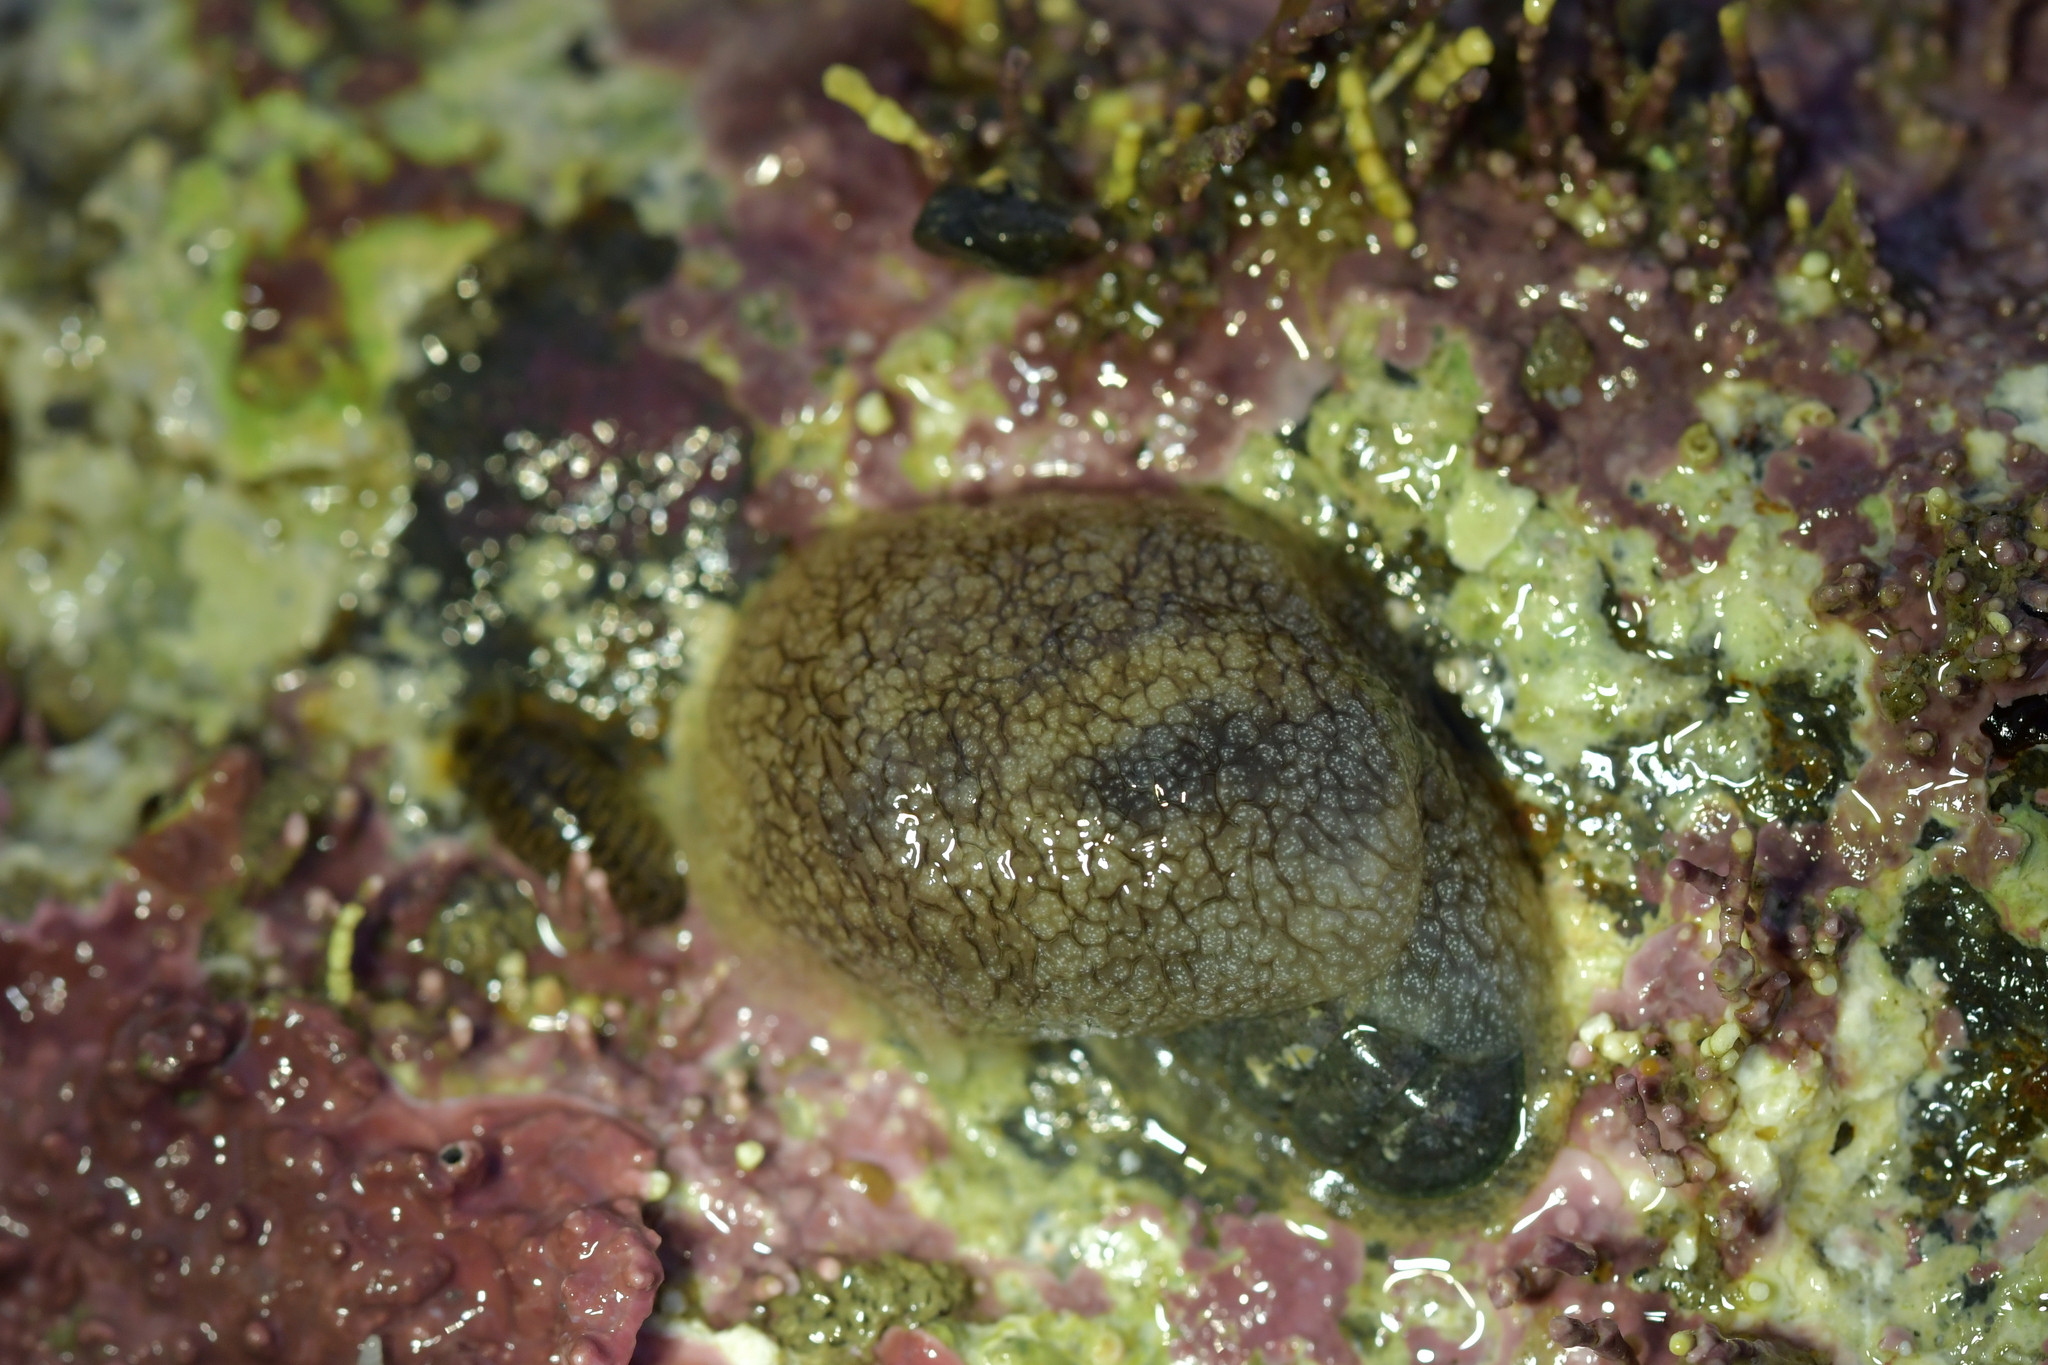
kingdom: Animalia
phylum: Mollusca
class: Gastropoda
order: Pleurobranchida
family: Pleurobranchaeidae
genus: Pleurobranchaea
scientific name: Pleurobranchaea maculata
